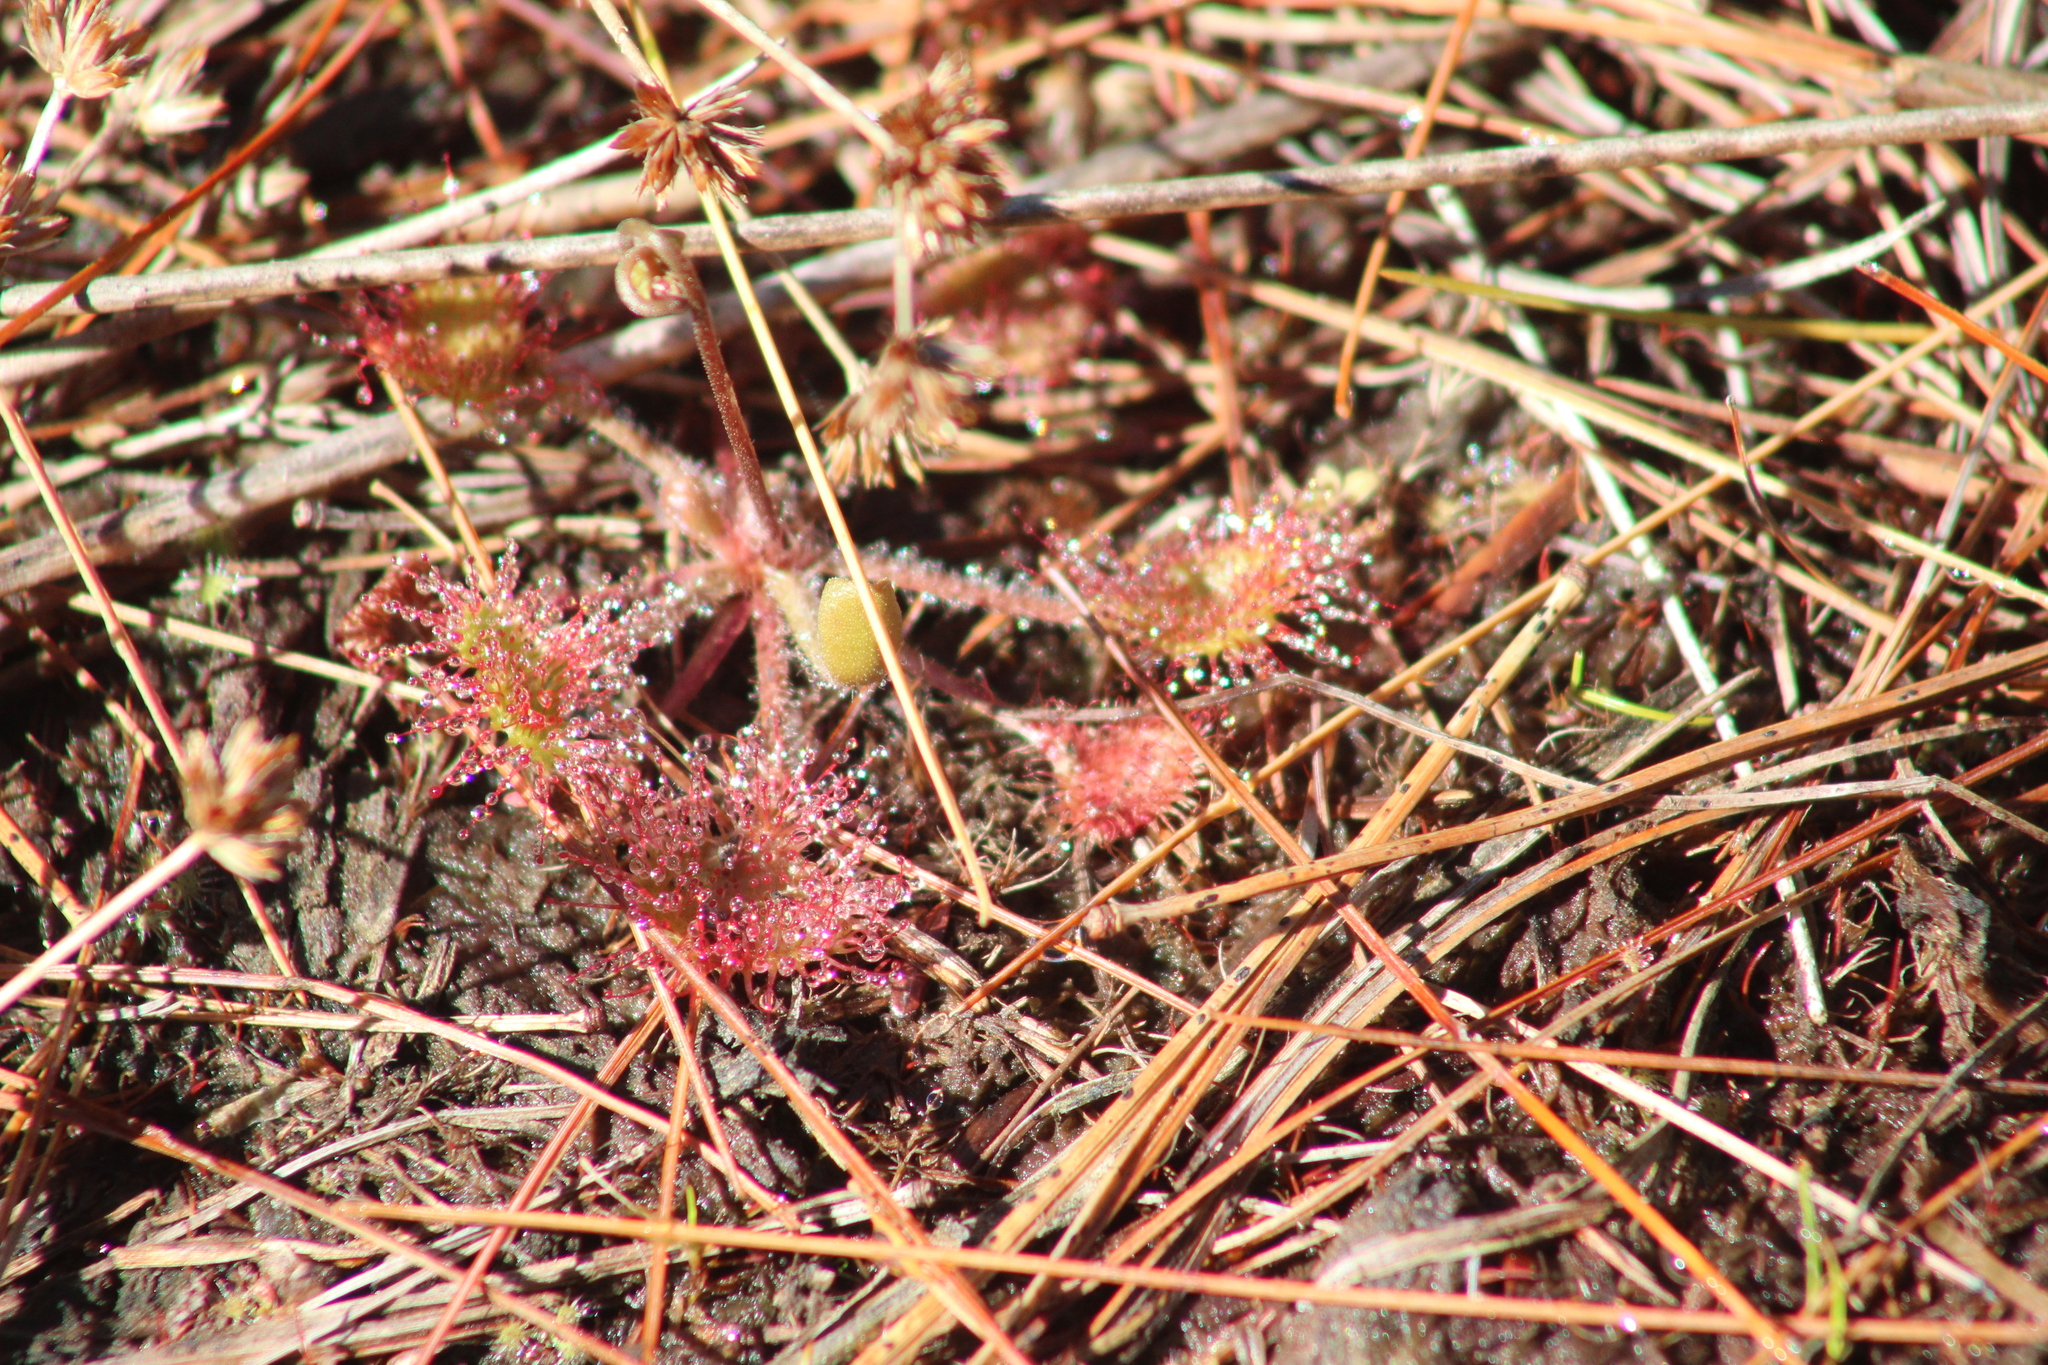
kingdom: Plantae
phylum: Tracheophyta
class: Magnoliopsida
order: Caryophyllales
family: Droseraceae
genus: Drosera
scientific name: Drosera rotundifolia
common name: Round-leaved sundew
